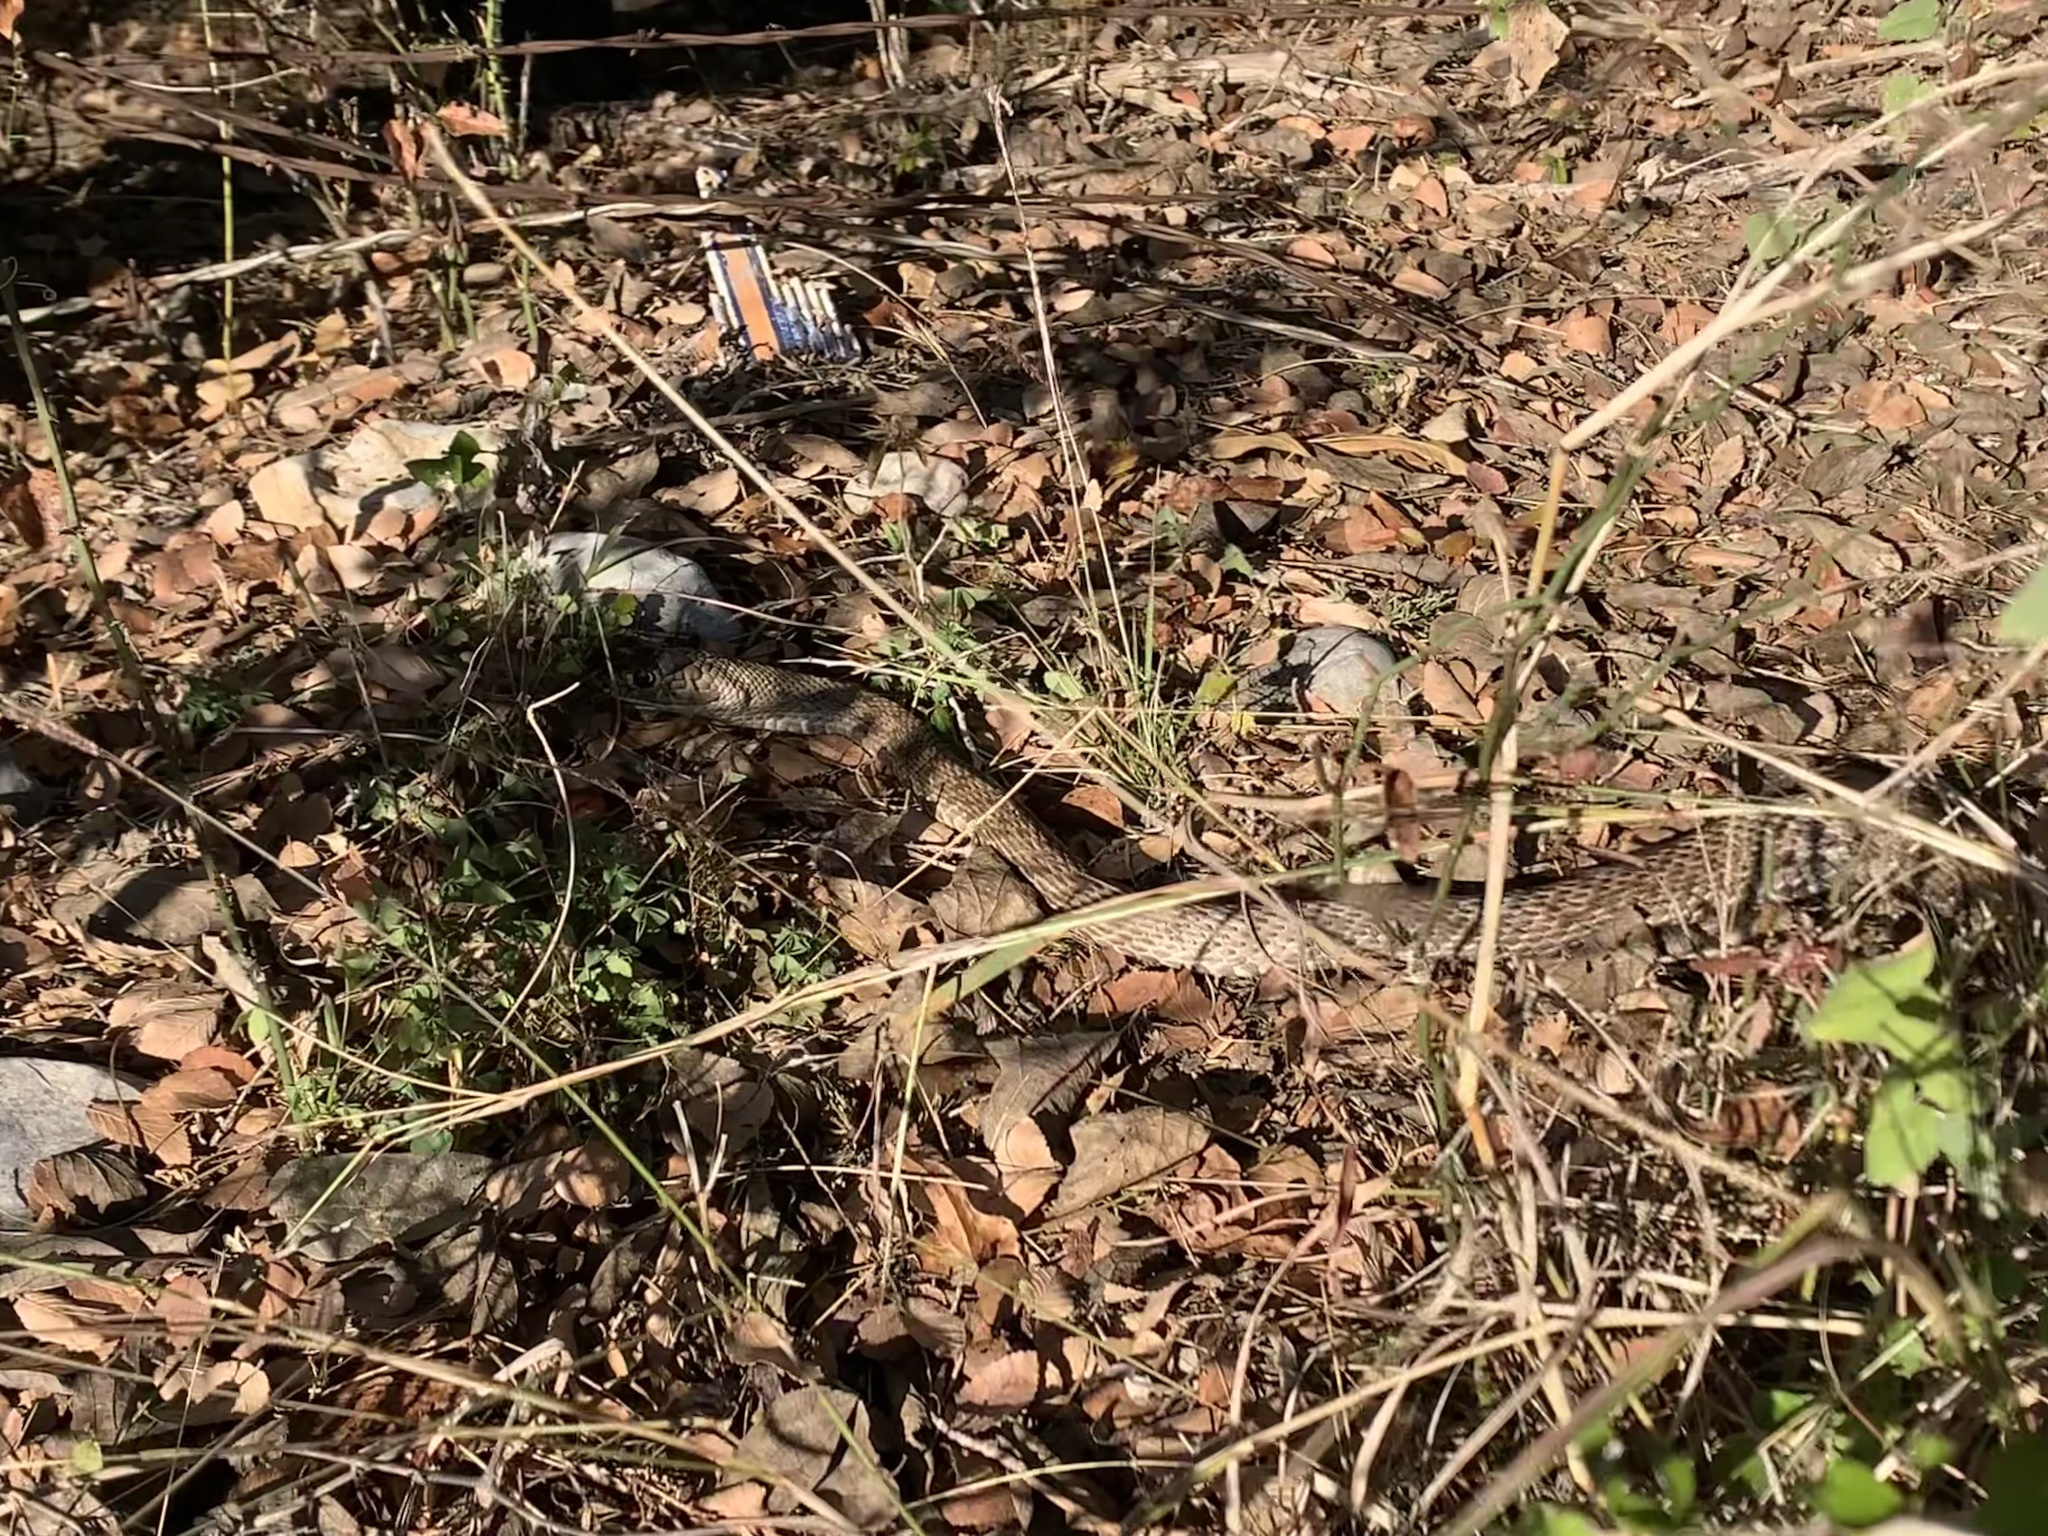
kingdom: Animalia
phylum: Chordata
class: Squamata
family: Colubridae
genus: Masticophis
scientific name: Masticophis flagellum
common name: Coachwhip
